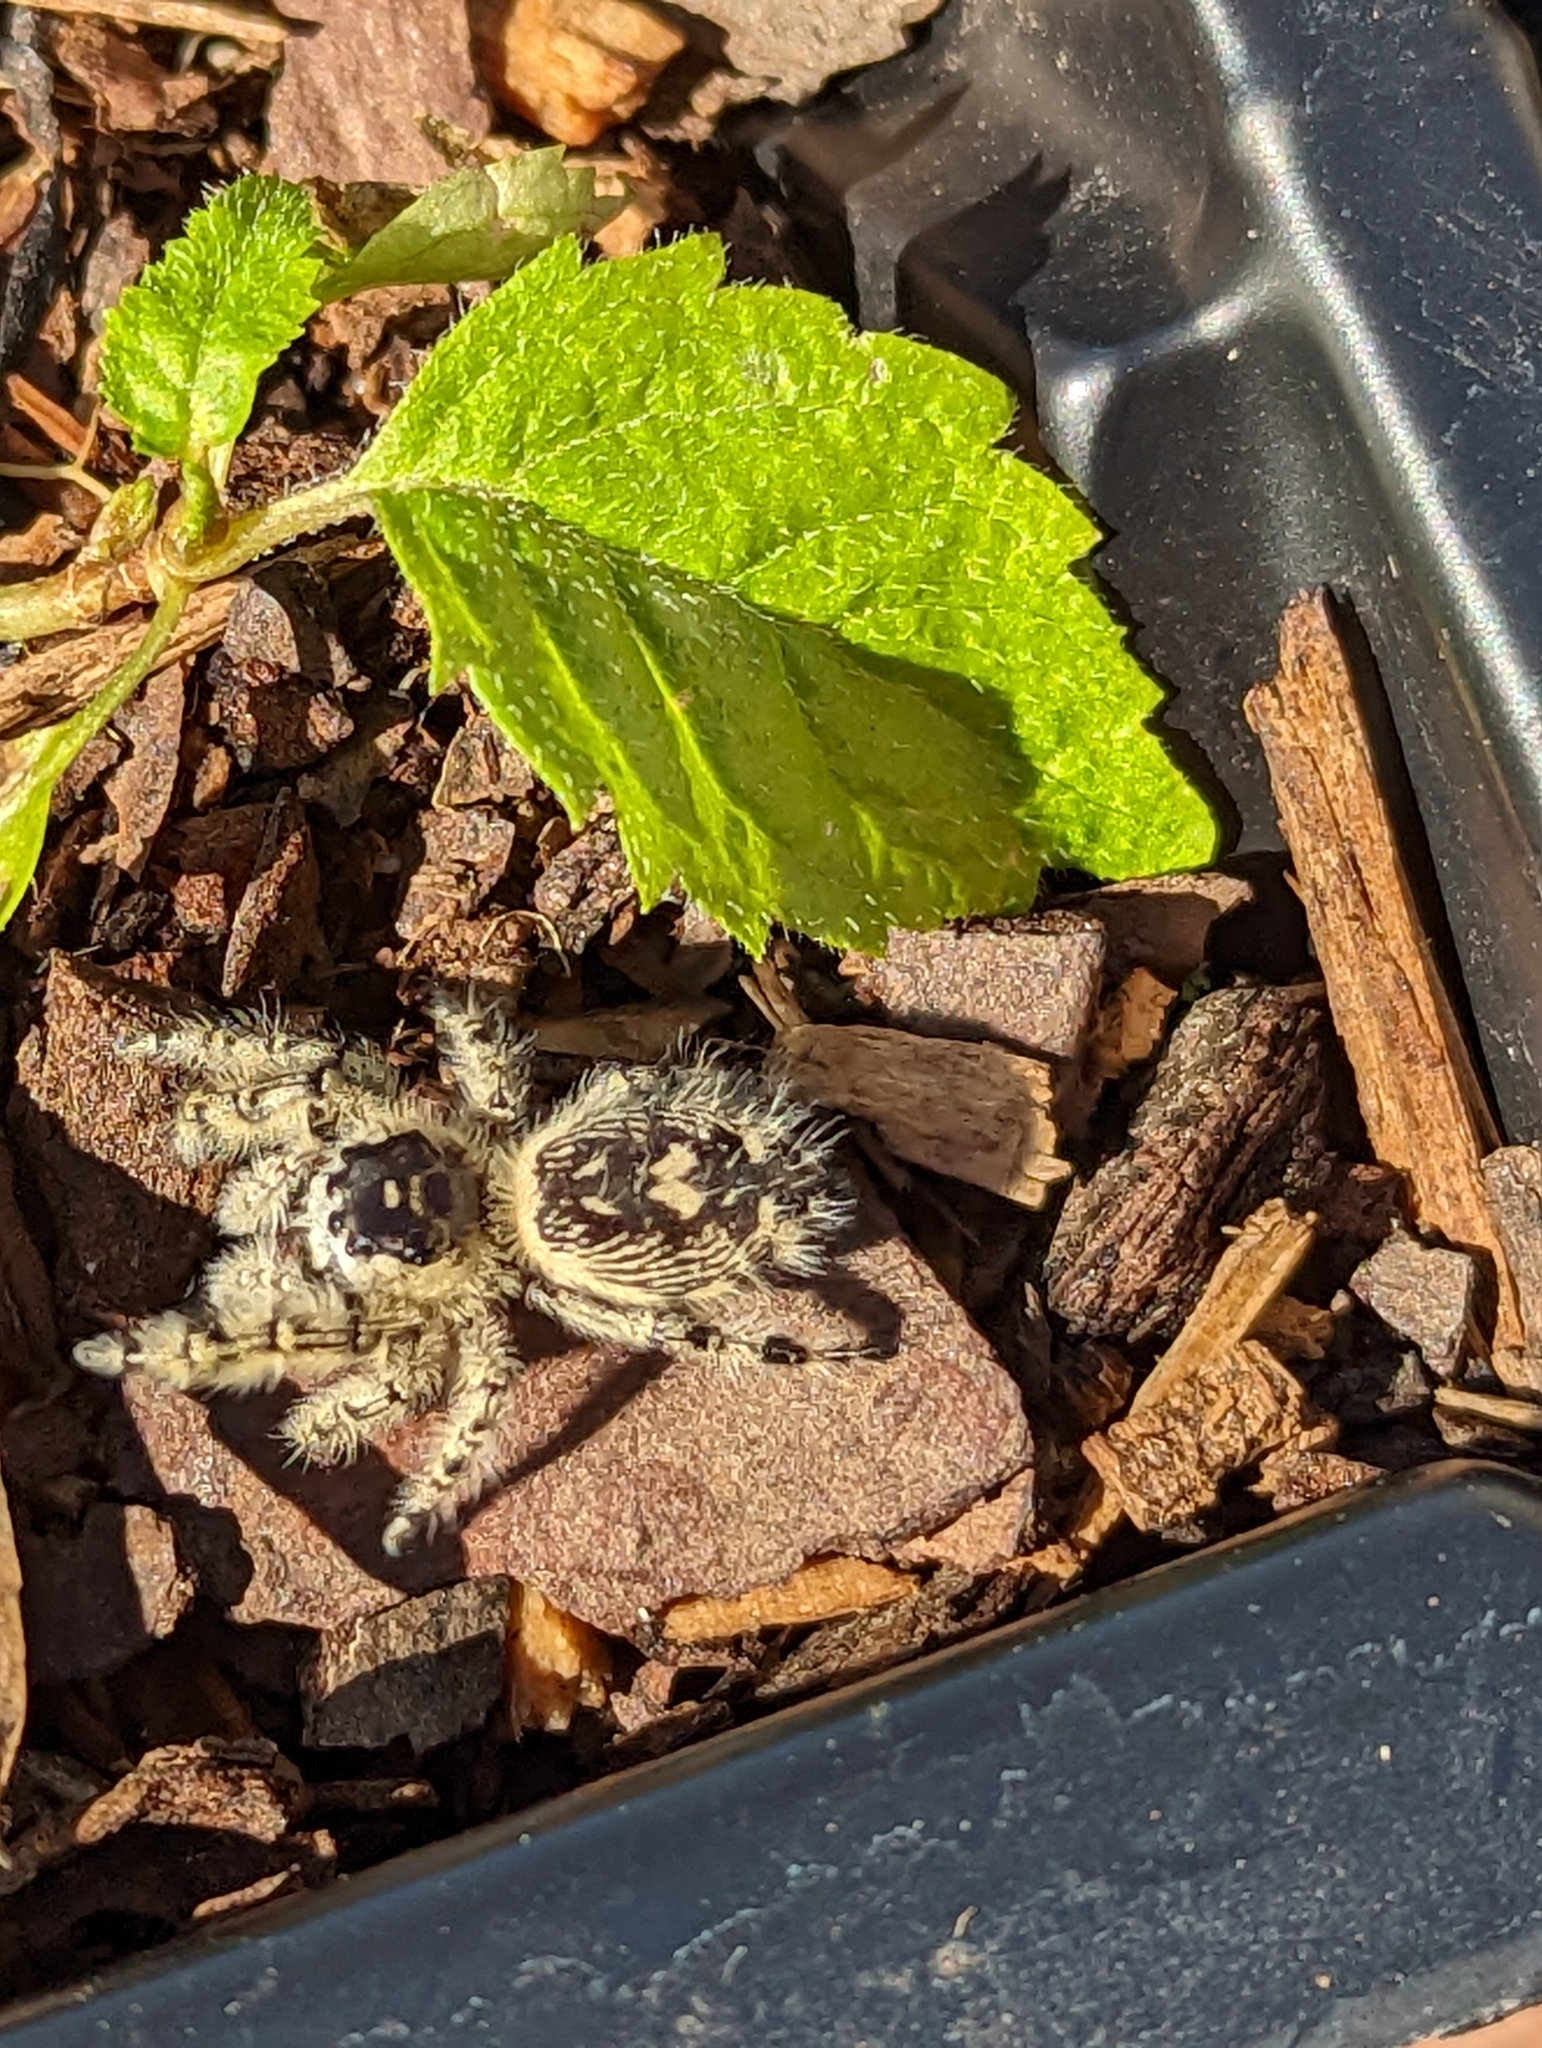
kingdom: Animalia
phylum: Arthropoda
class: Arachnida
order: Araneae
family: Salticidae
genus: Phidippus
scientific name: Phidippus otiosus
